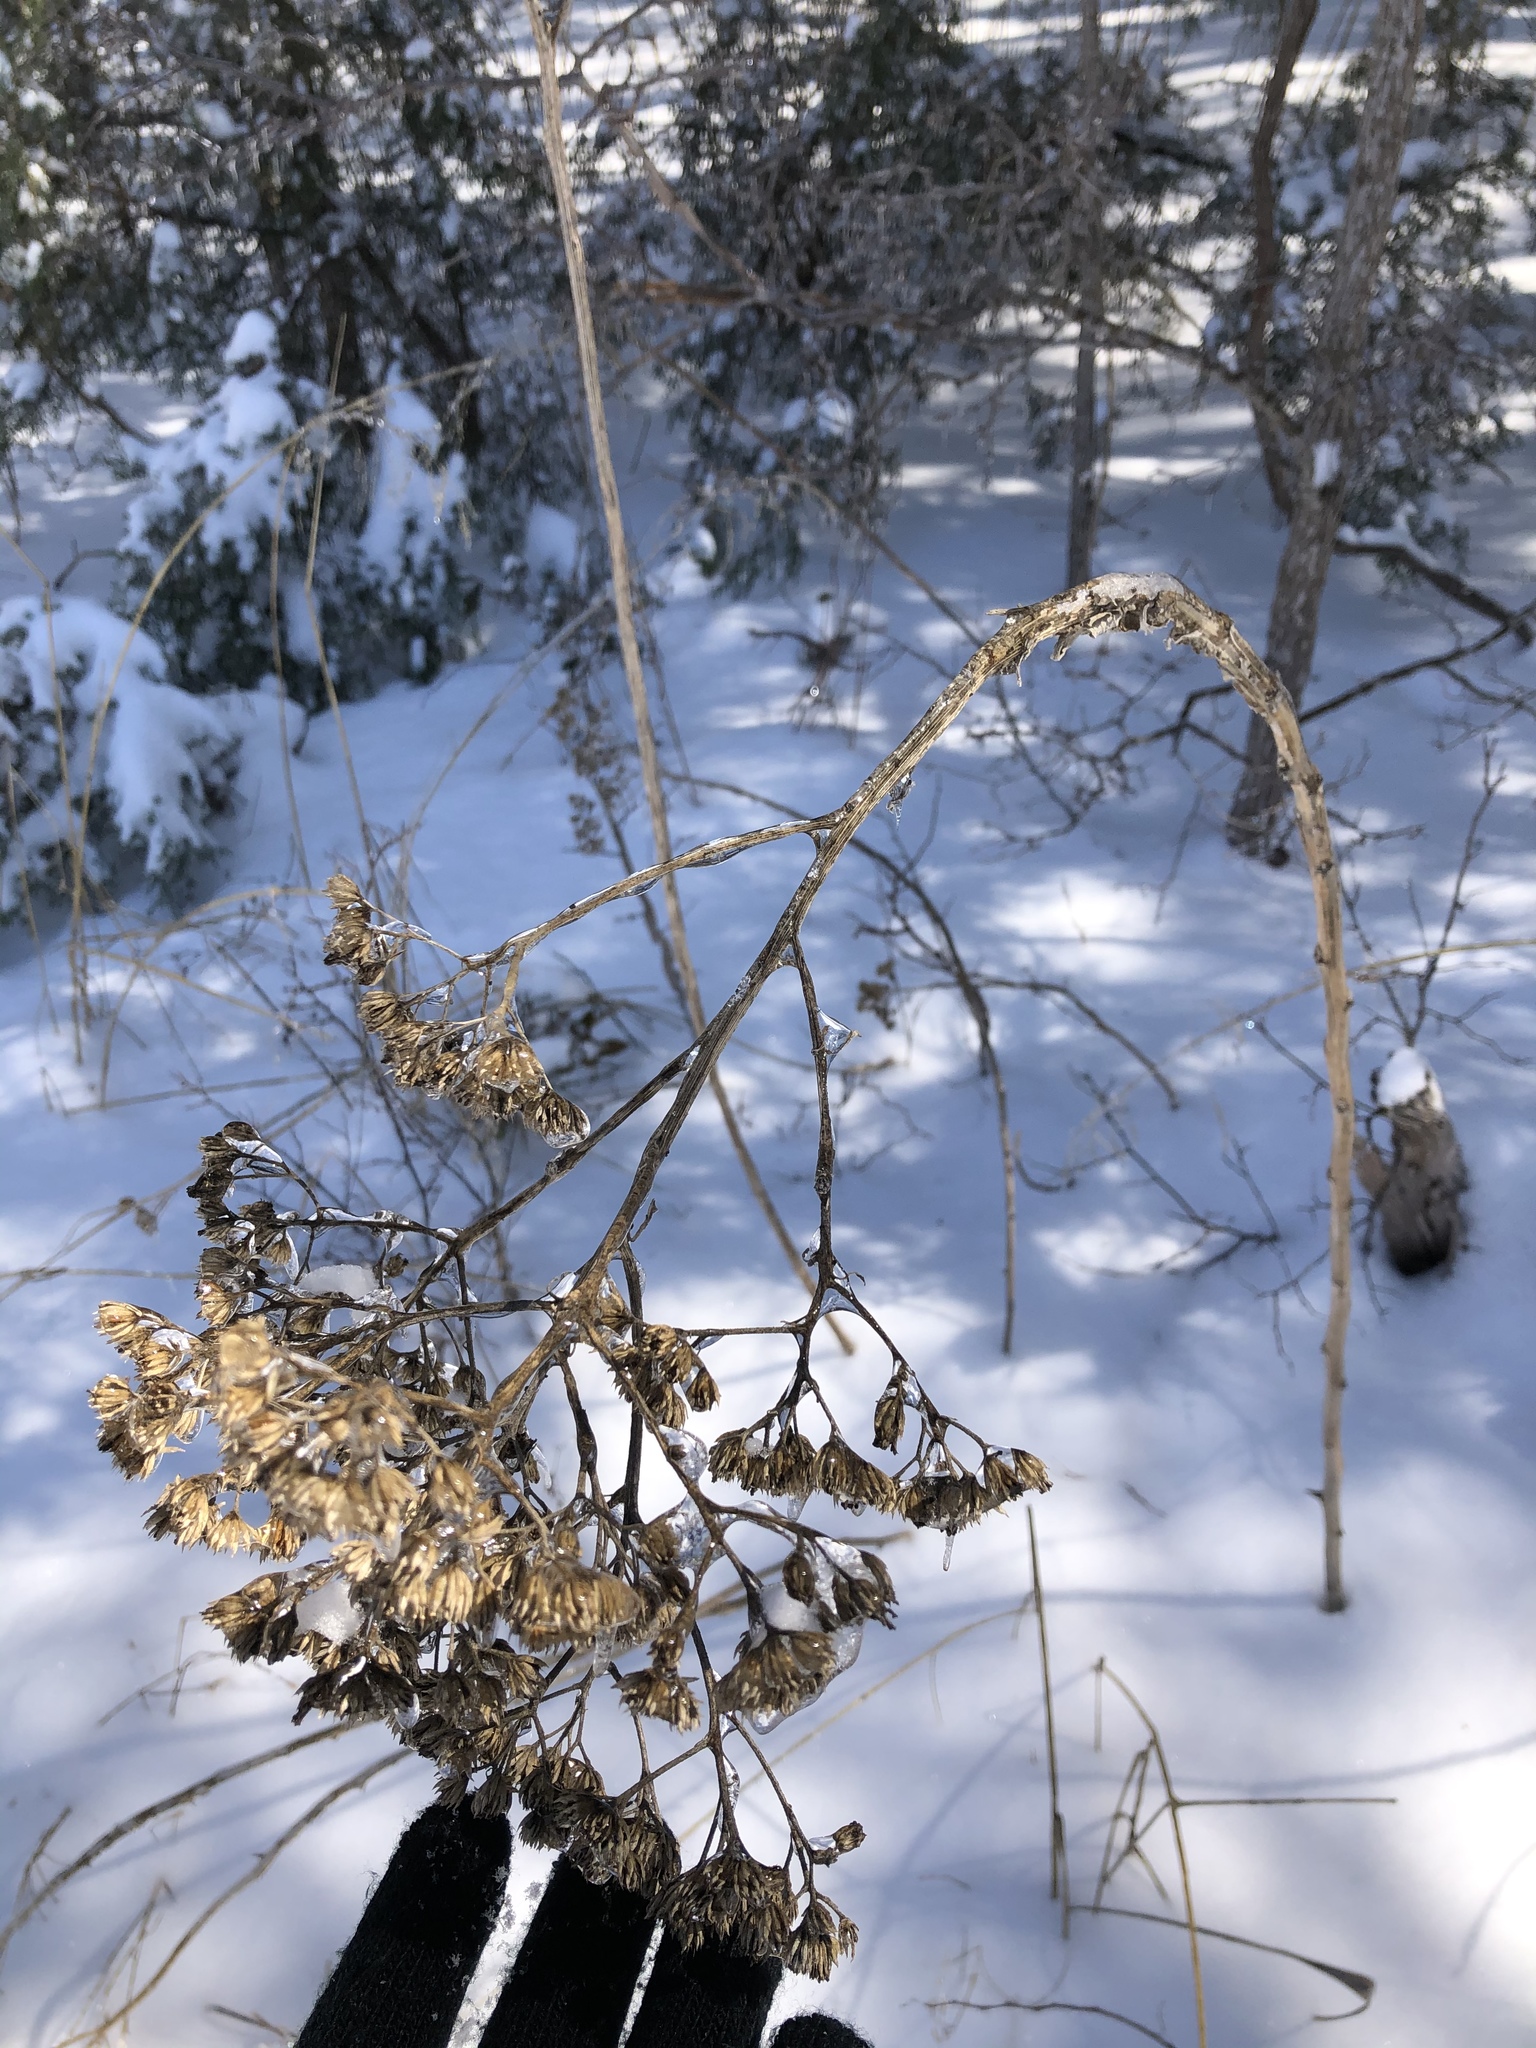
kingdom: Plantae
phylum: Tracheophyta
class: Magnoliopsida
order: Asterales
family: Asteraceae
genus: Verbesina
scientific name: Verbesina virginica
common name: Frostweed
